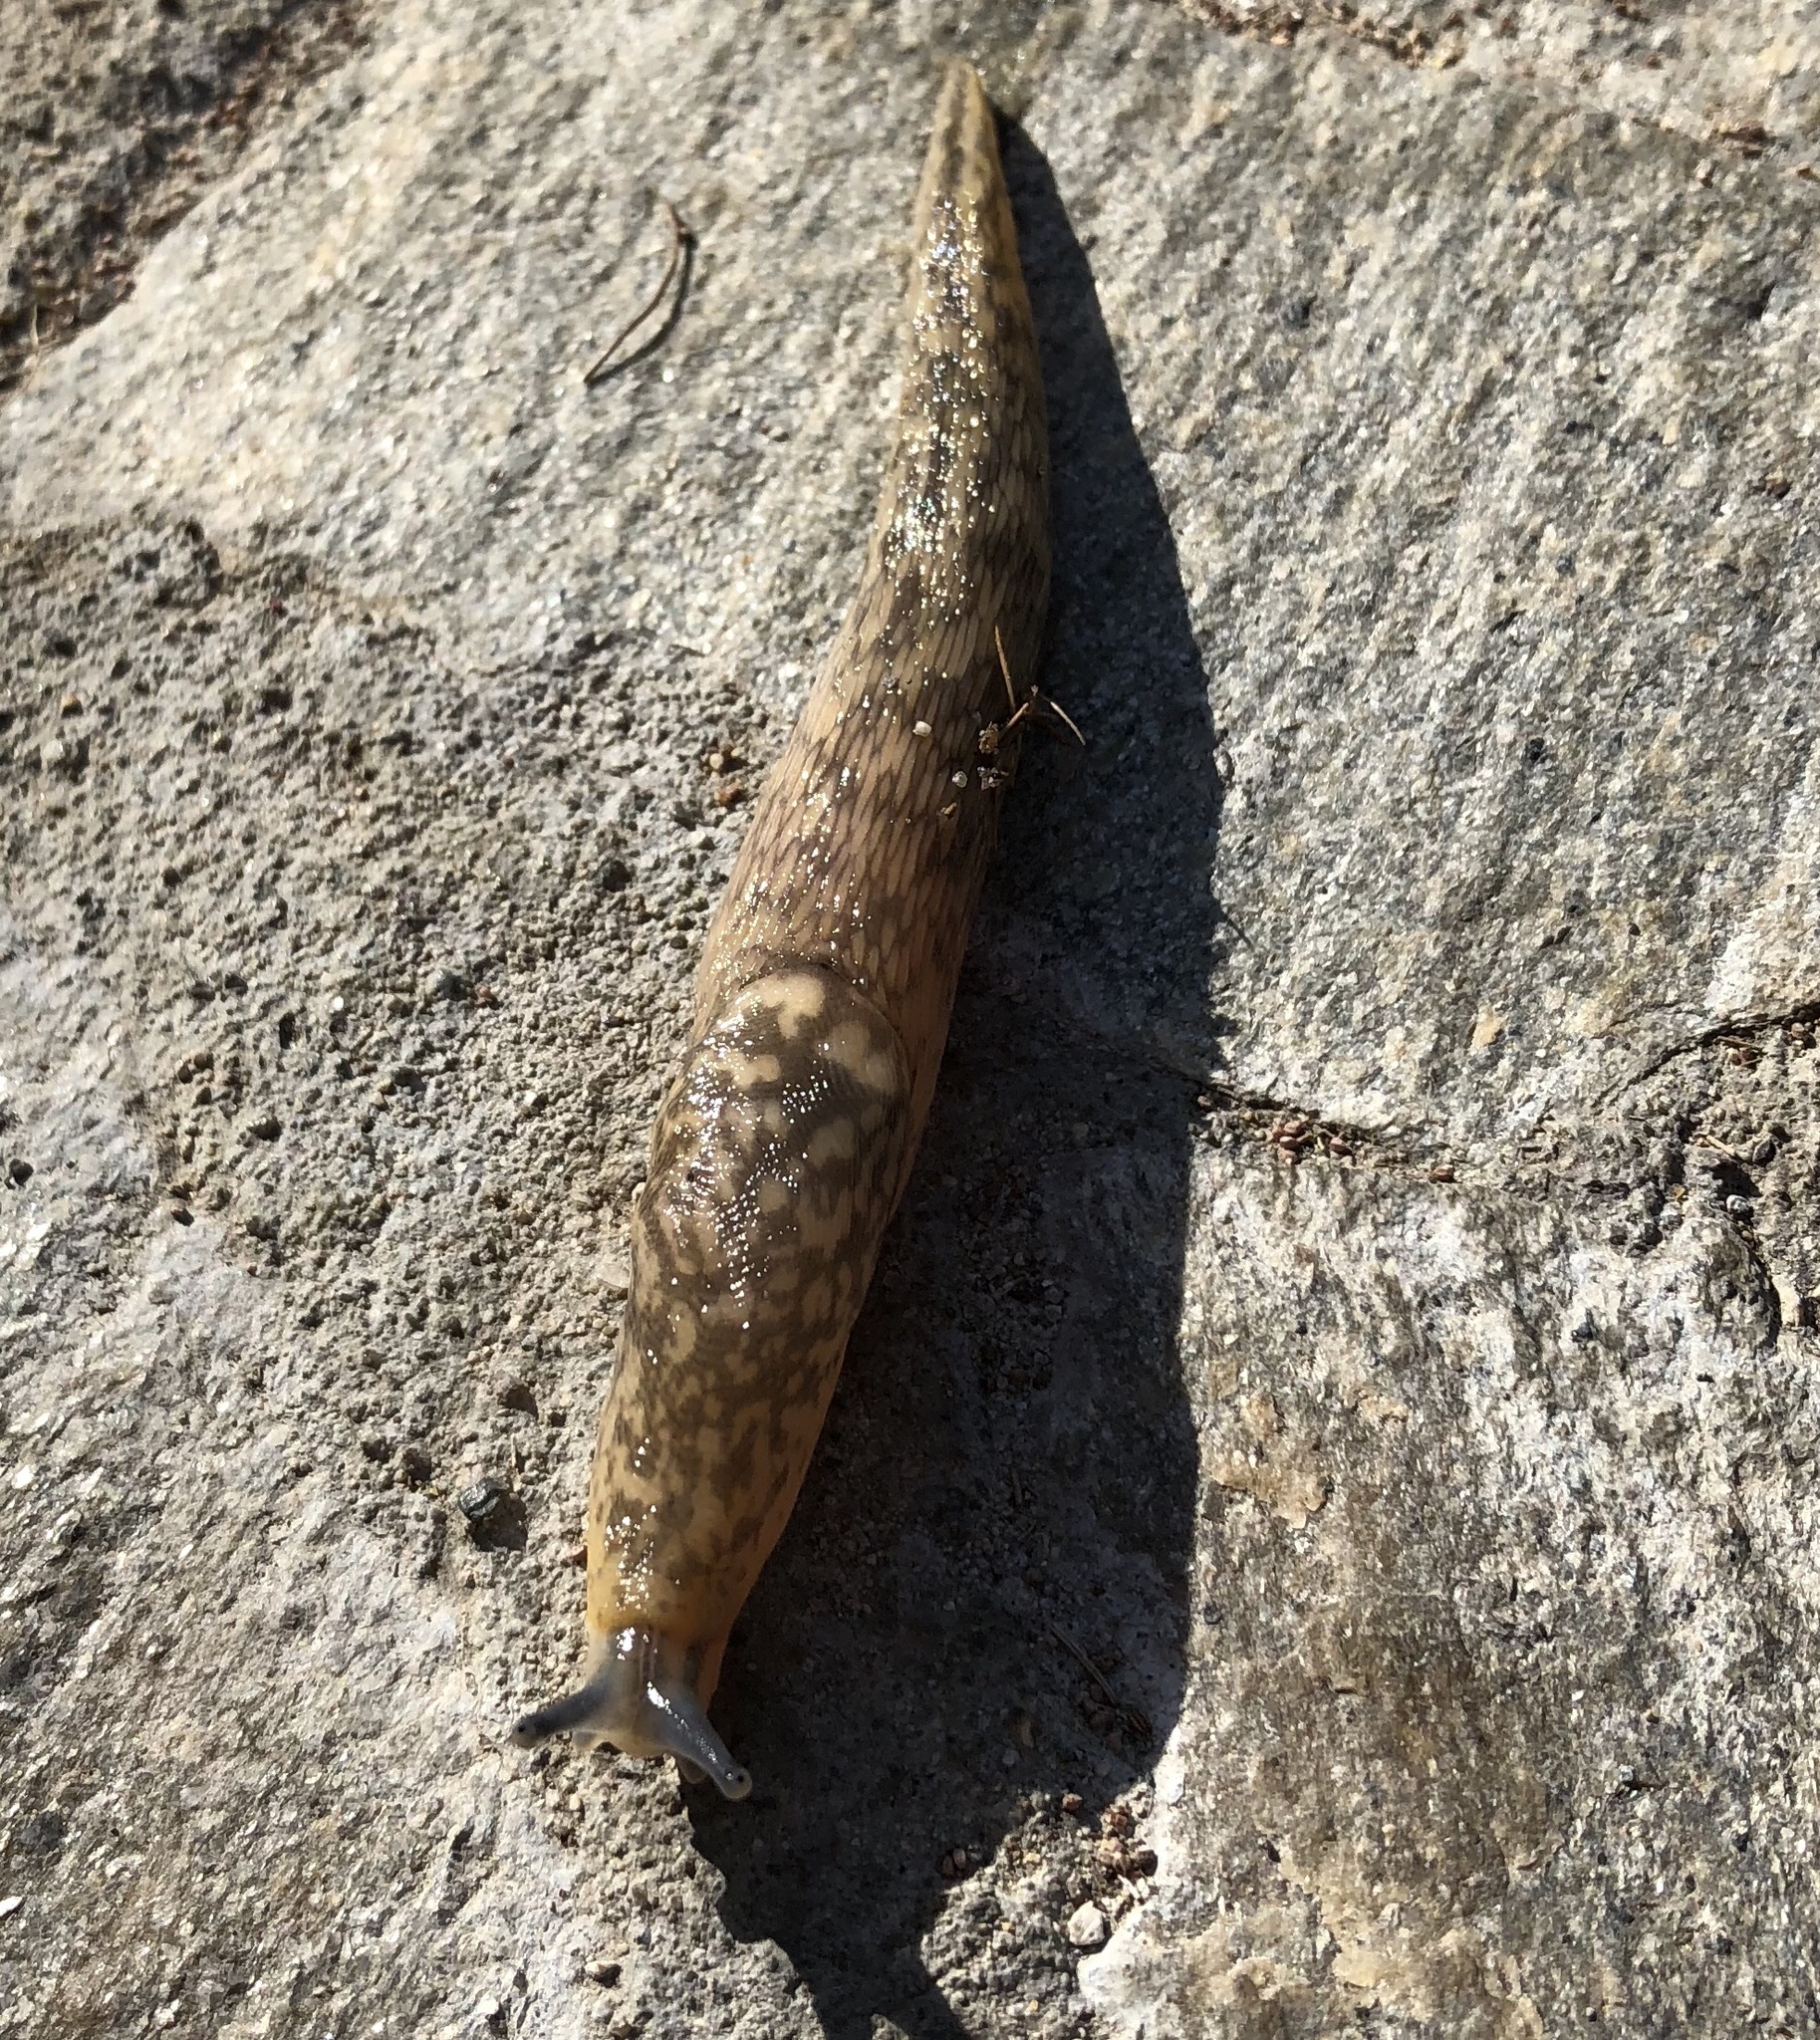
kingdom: Animalia
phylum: Mollusca
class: Gastropoda
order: Stylommatophora
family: Limacidae
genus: Limacus
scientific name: Limacus flavus
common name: Yellow gardenslug
